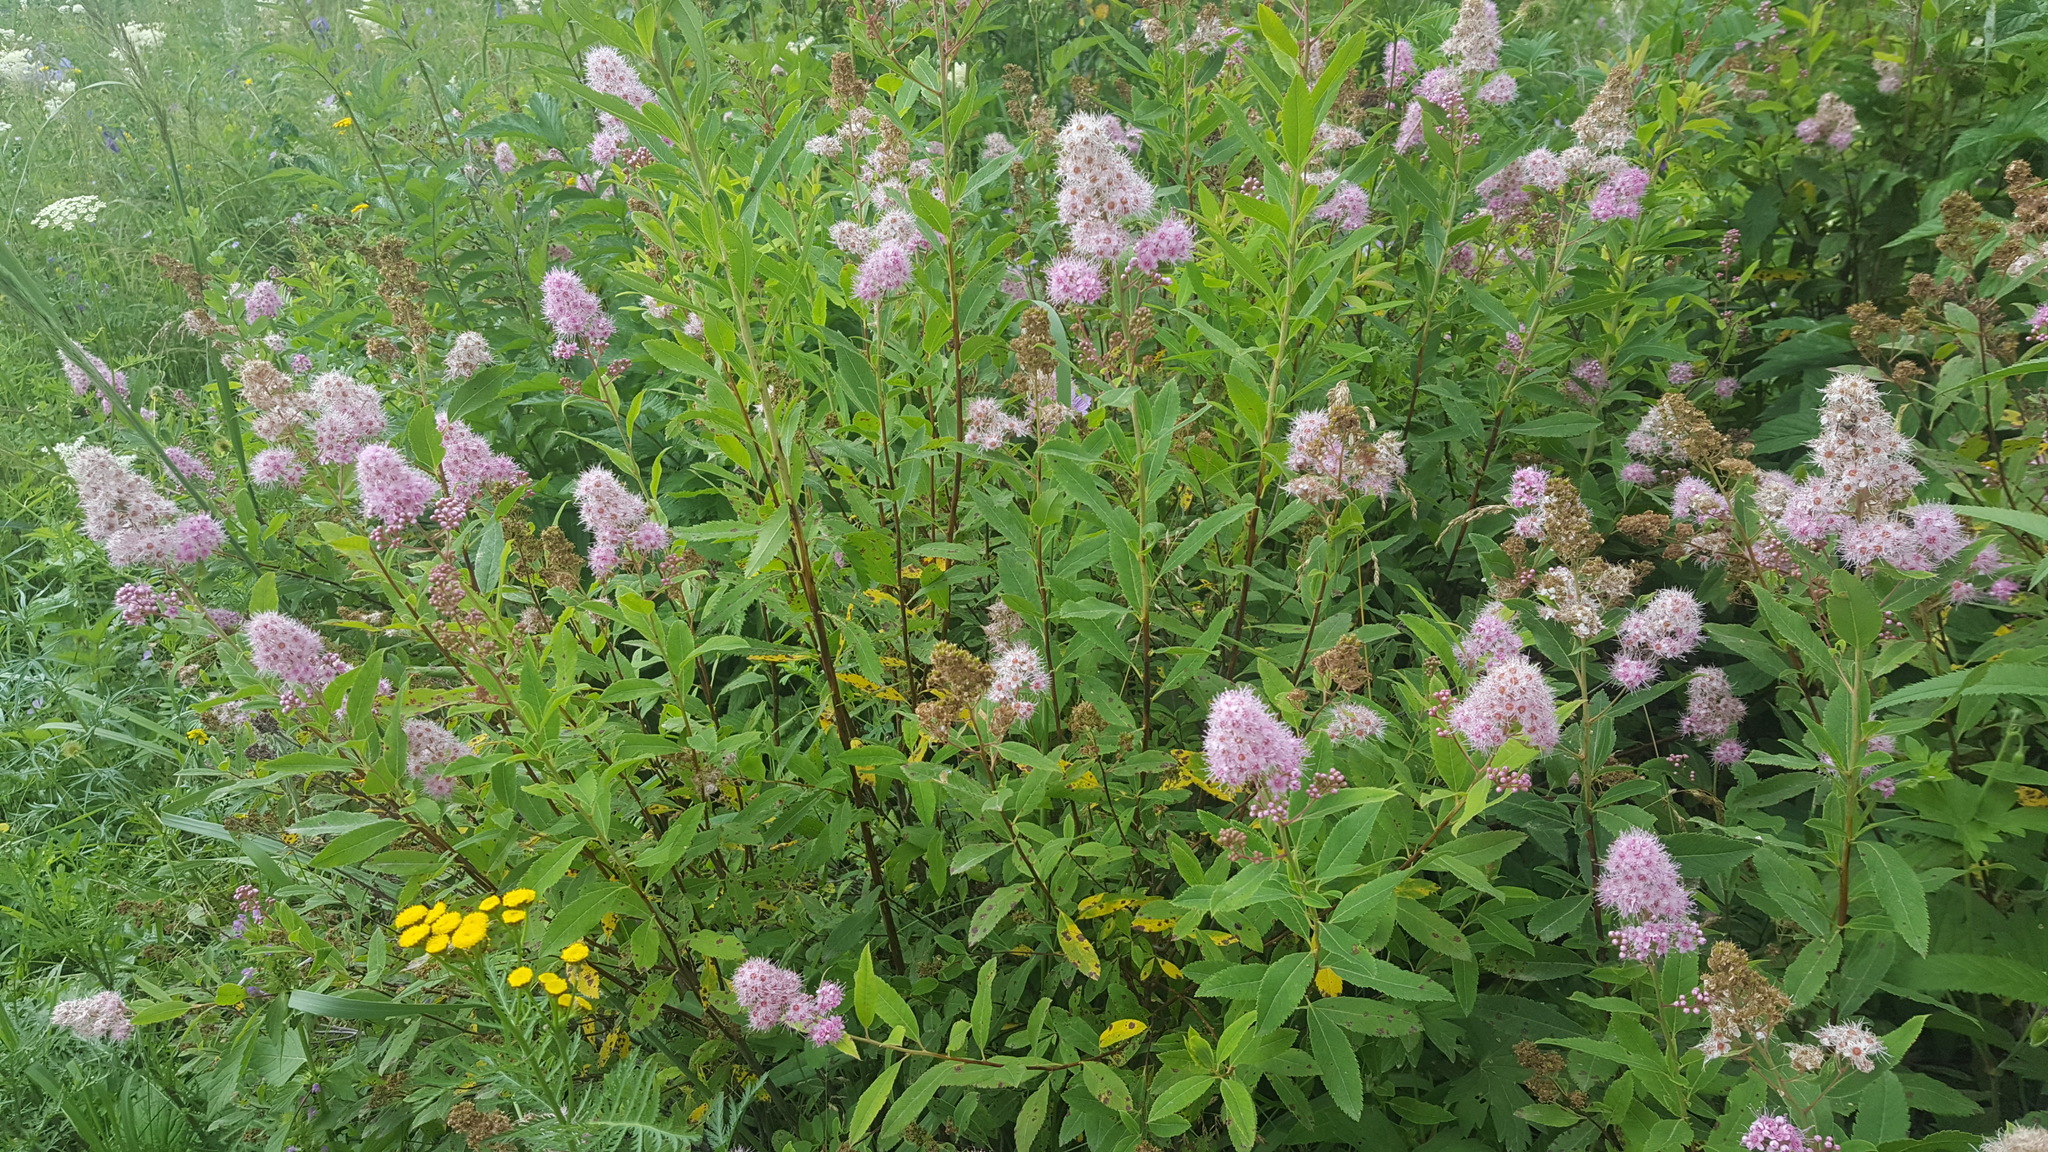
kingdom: Plantae
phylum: Tracheophyta
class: Magnoliopsida
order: Rosales
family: Rosaceae
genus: Spiraea
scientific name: Spiraea salicifolia
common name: Bridewort
